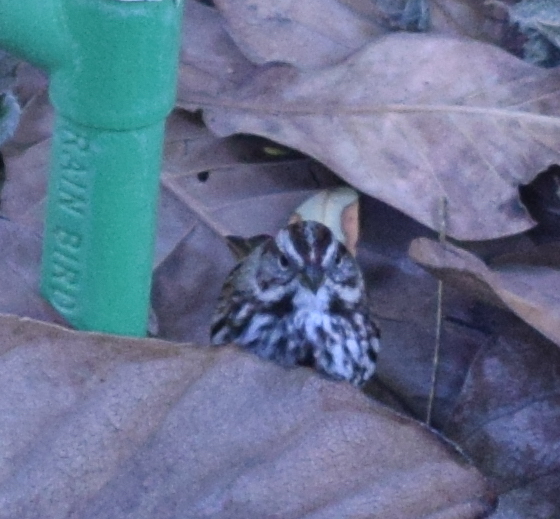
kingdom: Animalia
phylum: Chordata
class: Aves
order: Passeriformes
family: Passerellidae
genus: Melospiza
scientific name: Melospiza melodia
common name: Song sparrow
